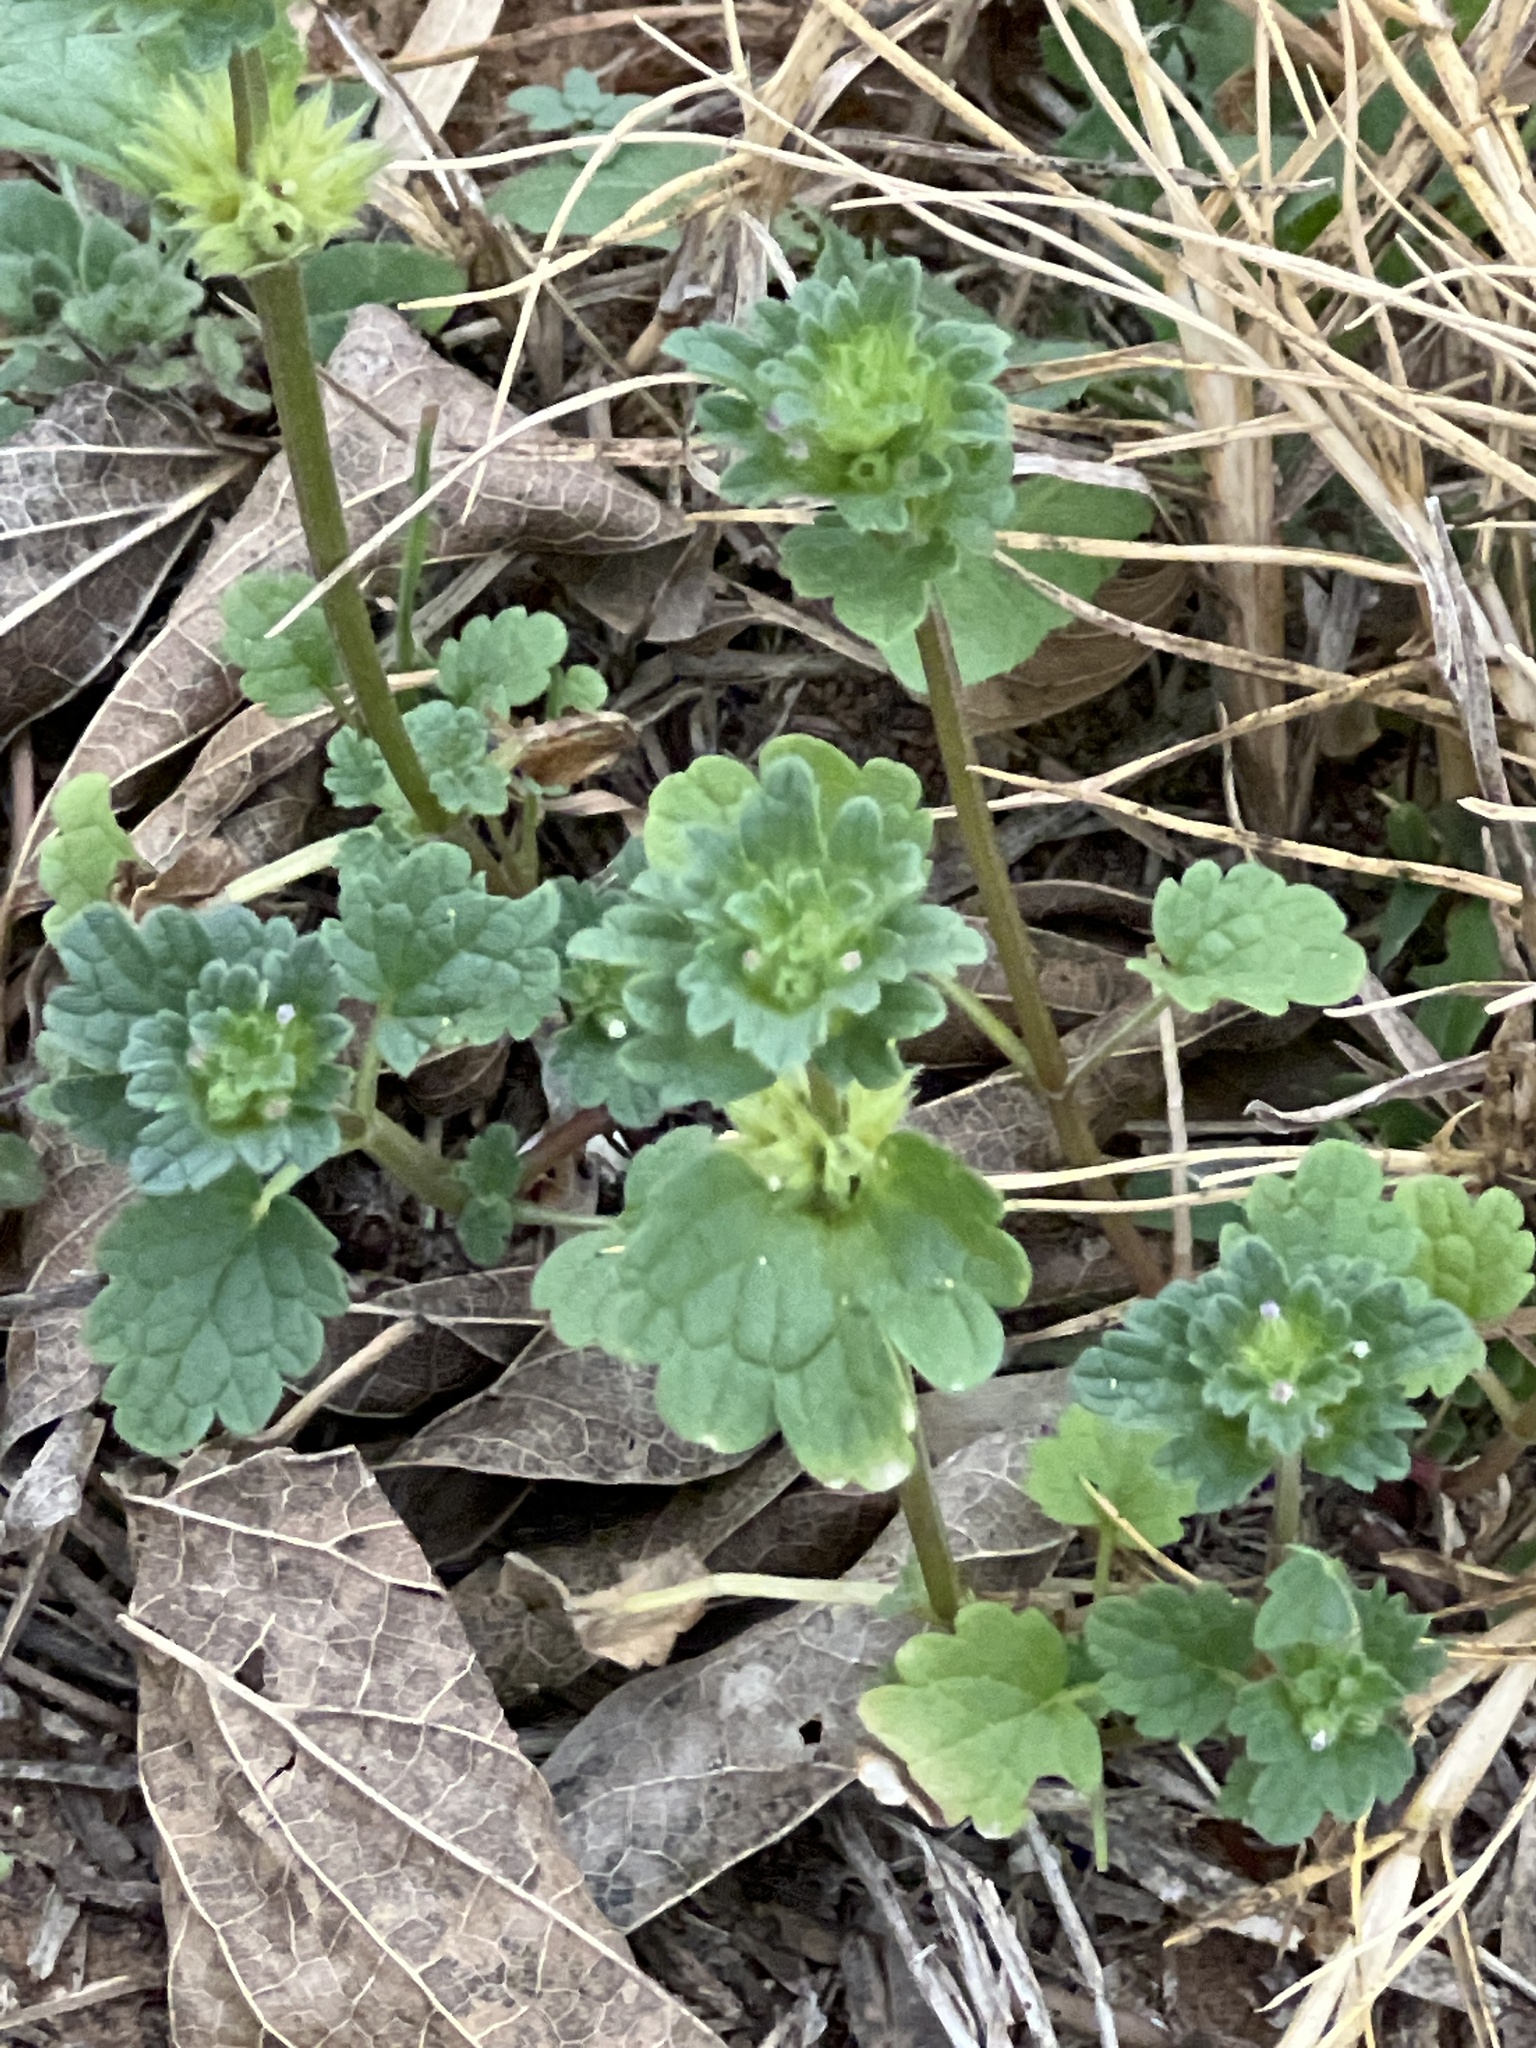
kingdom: Plantae
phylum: Tracheophyta
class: Magnoliopsida
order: Lamiales
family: Lamiaceae
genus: Lamium
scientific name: Lamium amplexicaule
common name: Henbit dead-nettle
